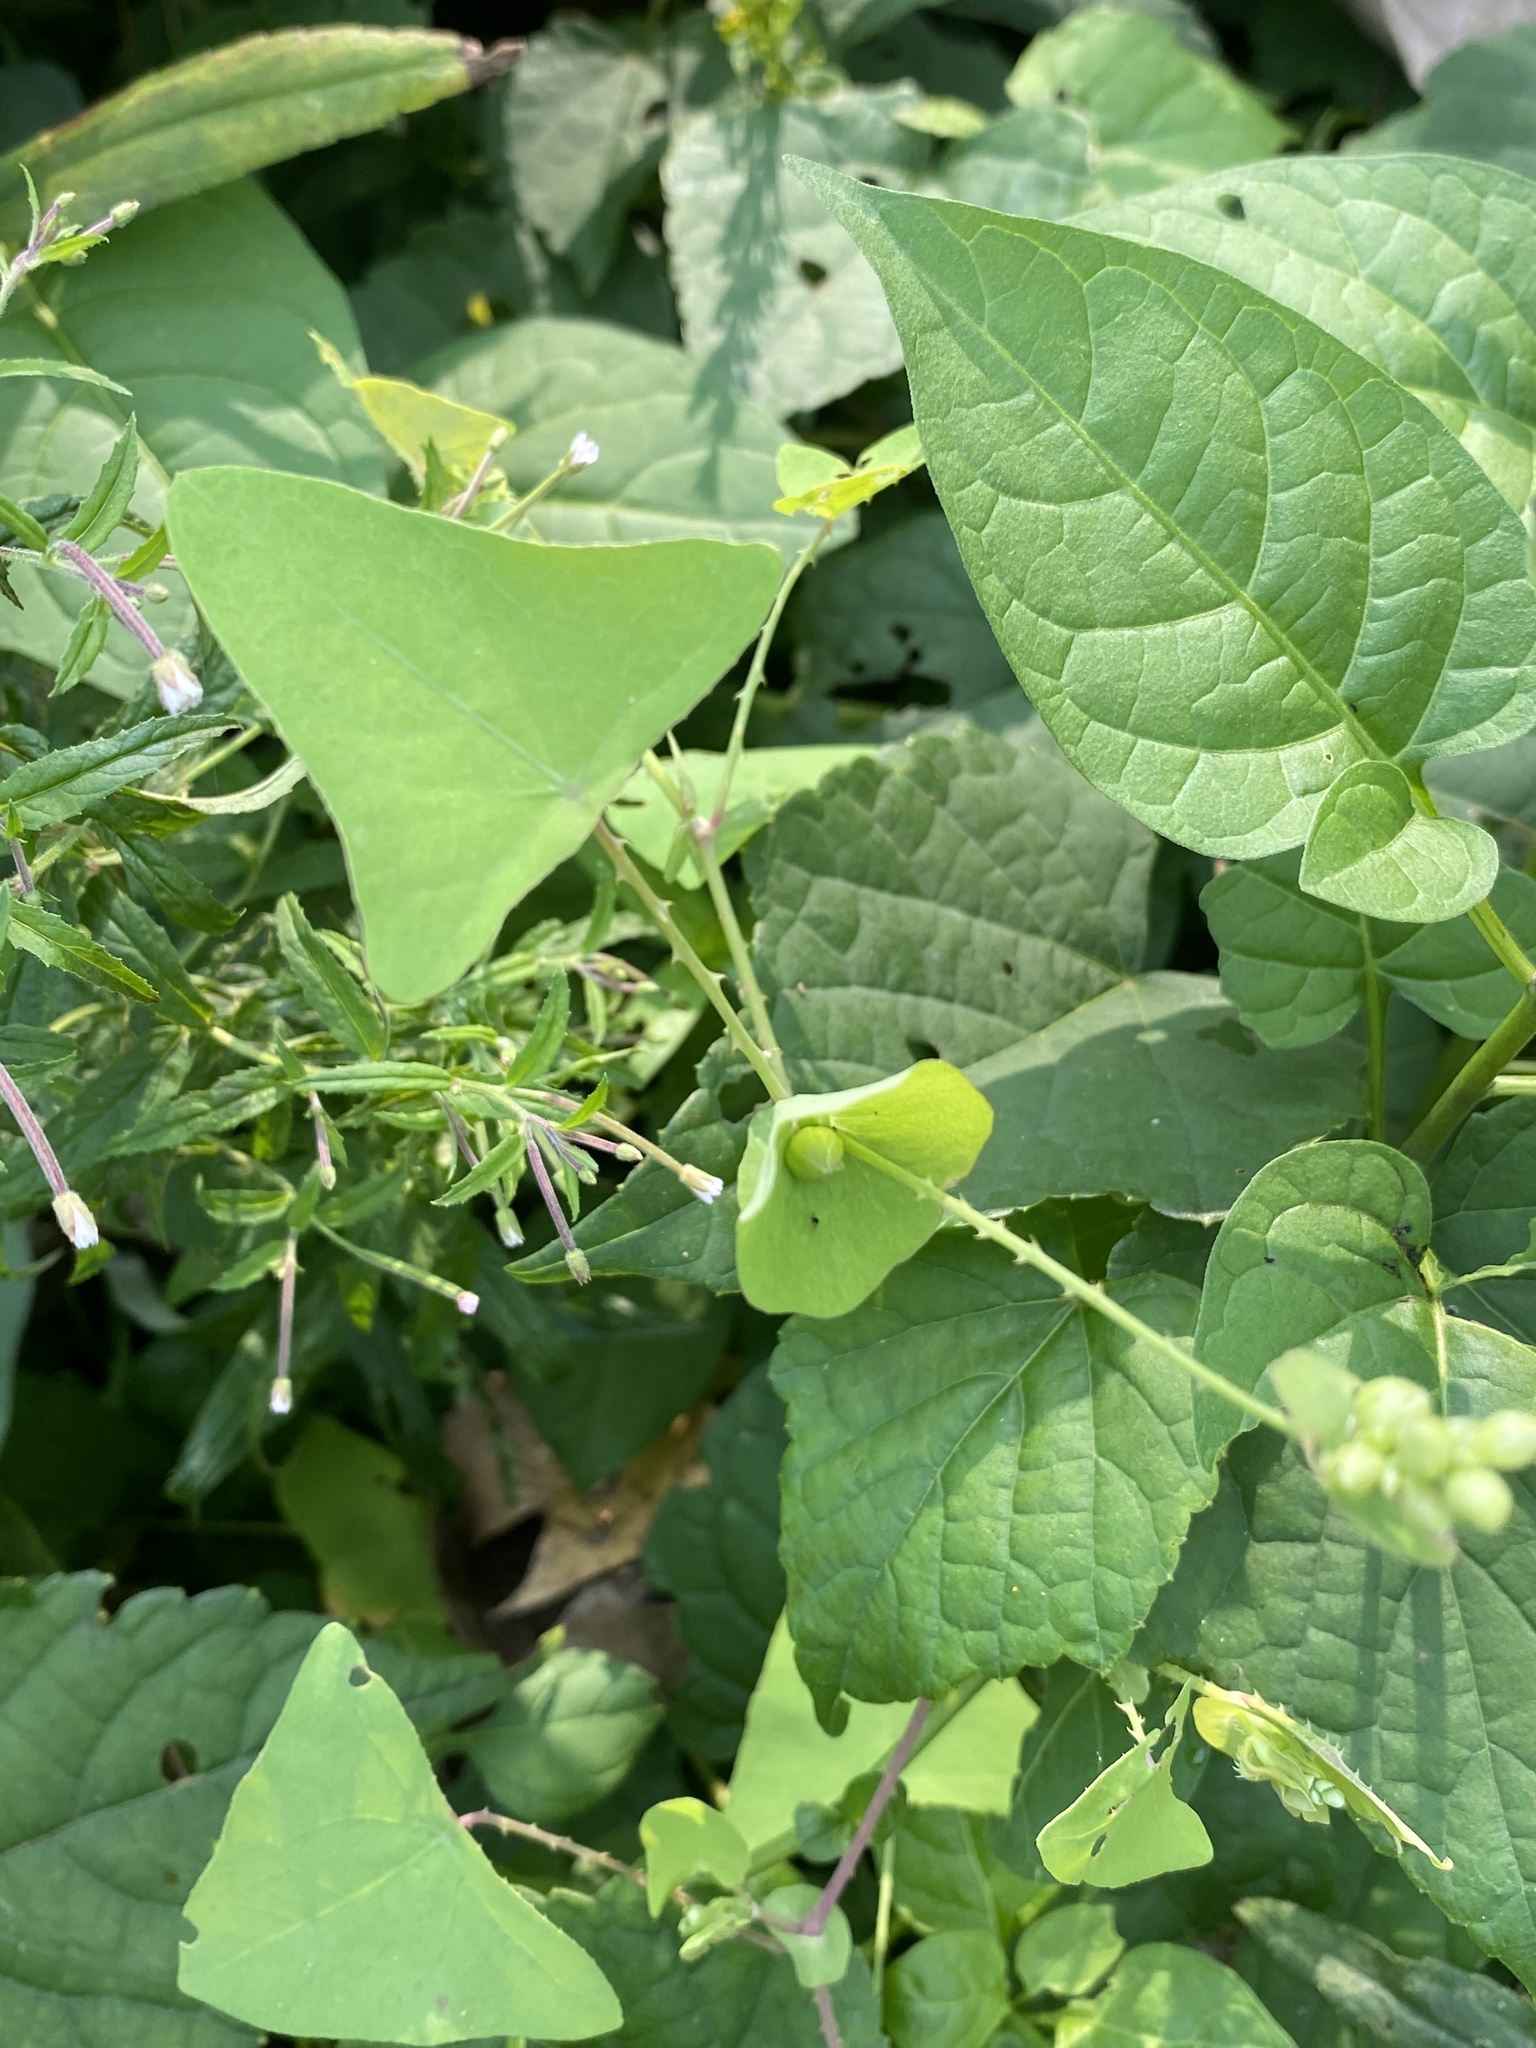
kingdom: Plantae
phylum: Tracheophyta
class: Magnoliopsida
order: Caryophyllales
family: Polygonaceae
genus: Persicaria
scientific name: Persicaria perfoliata
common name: Asiatic tearthumb
